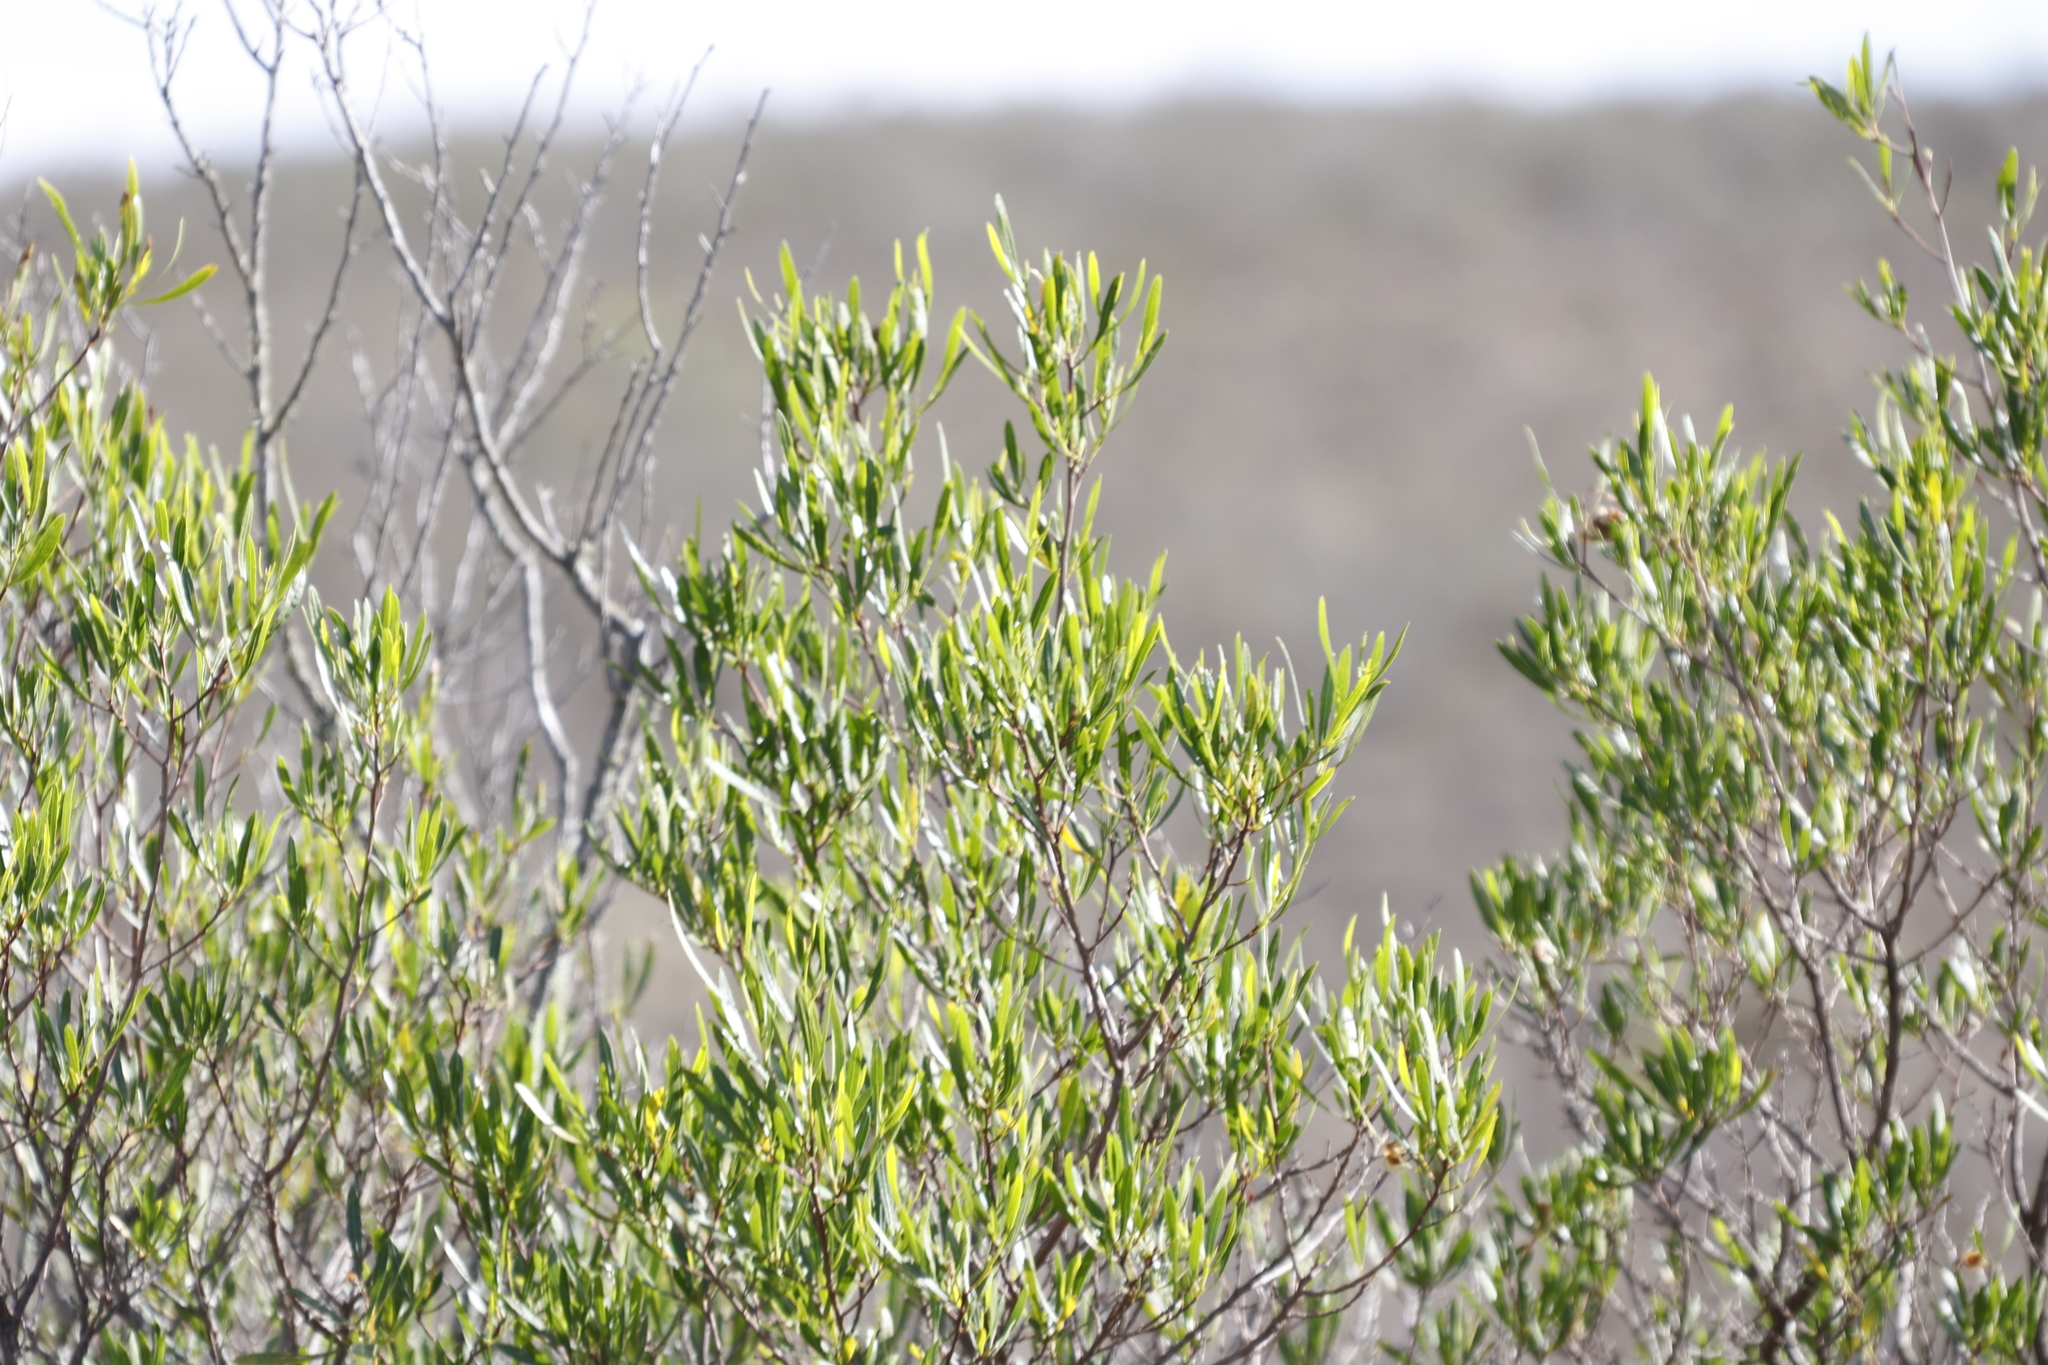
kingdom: Plantae
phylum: Tracheophyta
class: Magnoliopsida
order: Sapindales
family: Sapindaceae
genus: Dodonaea
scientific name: Dodonaea viscosa
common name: Hopbush
